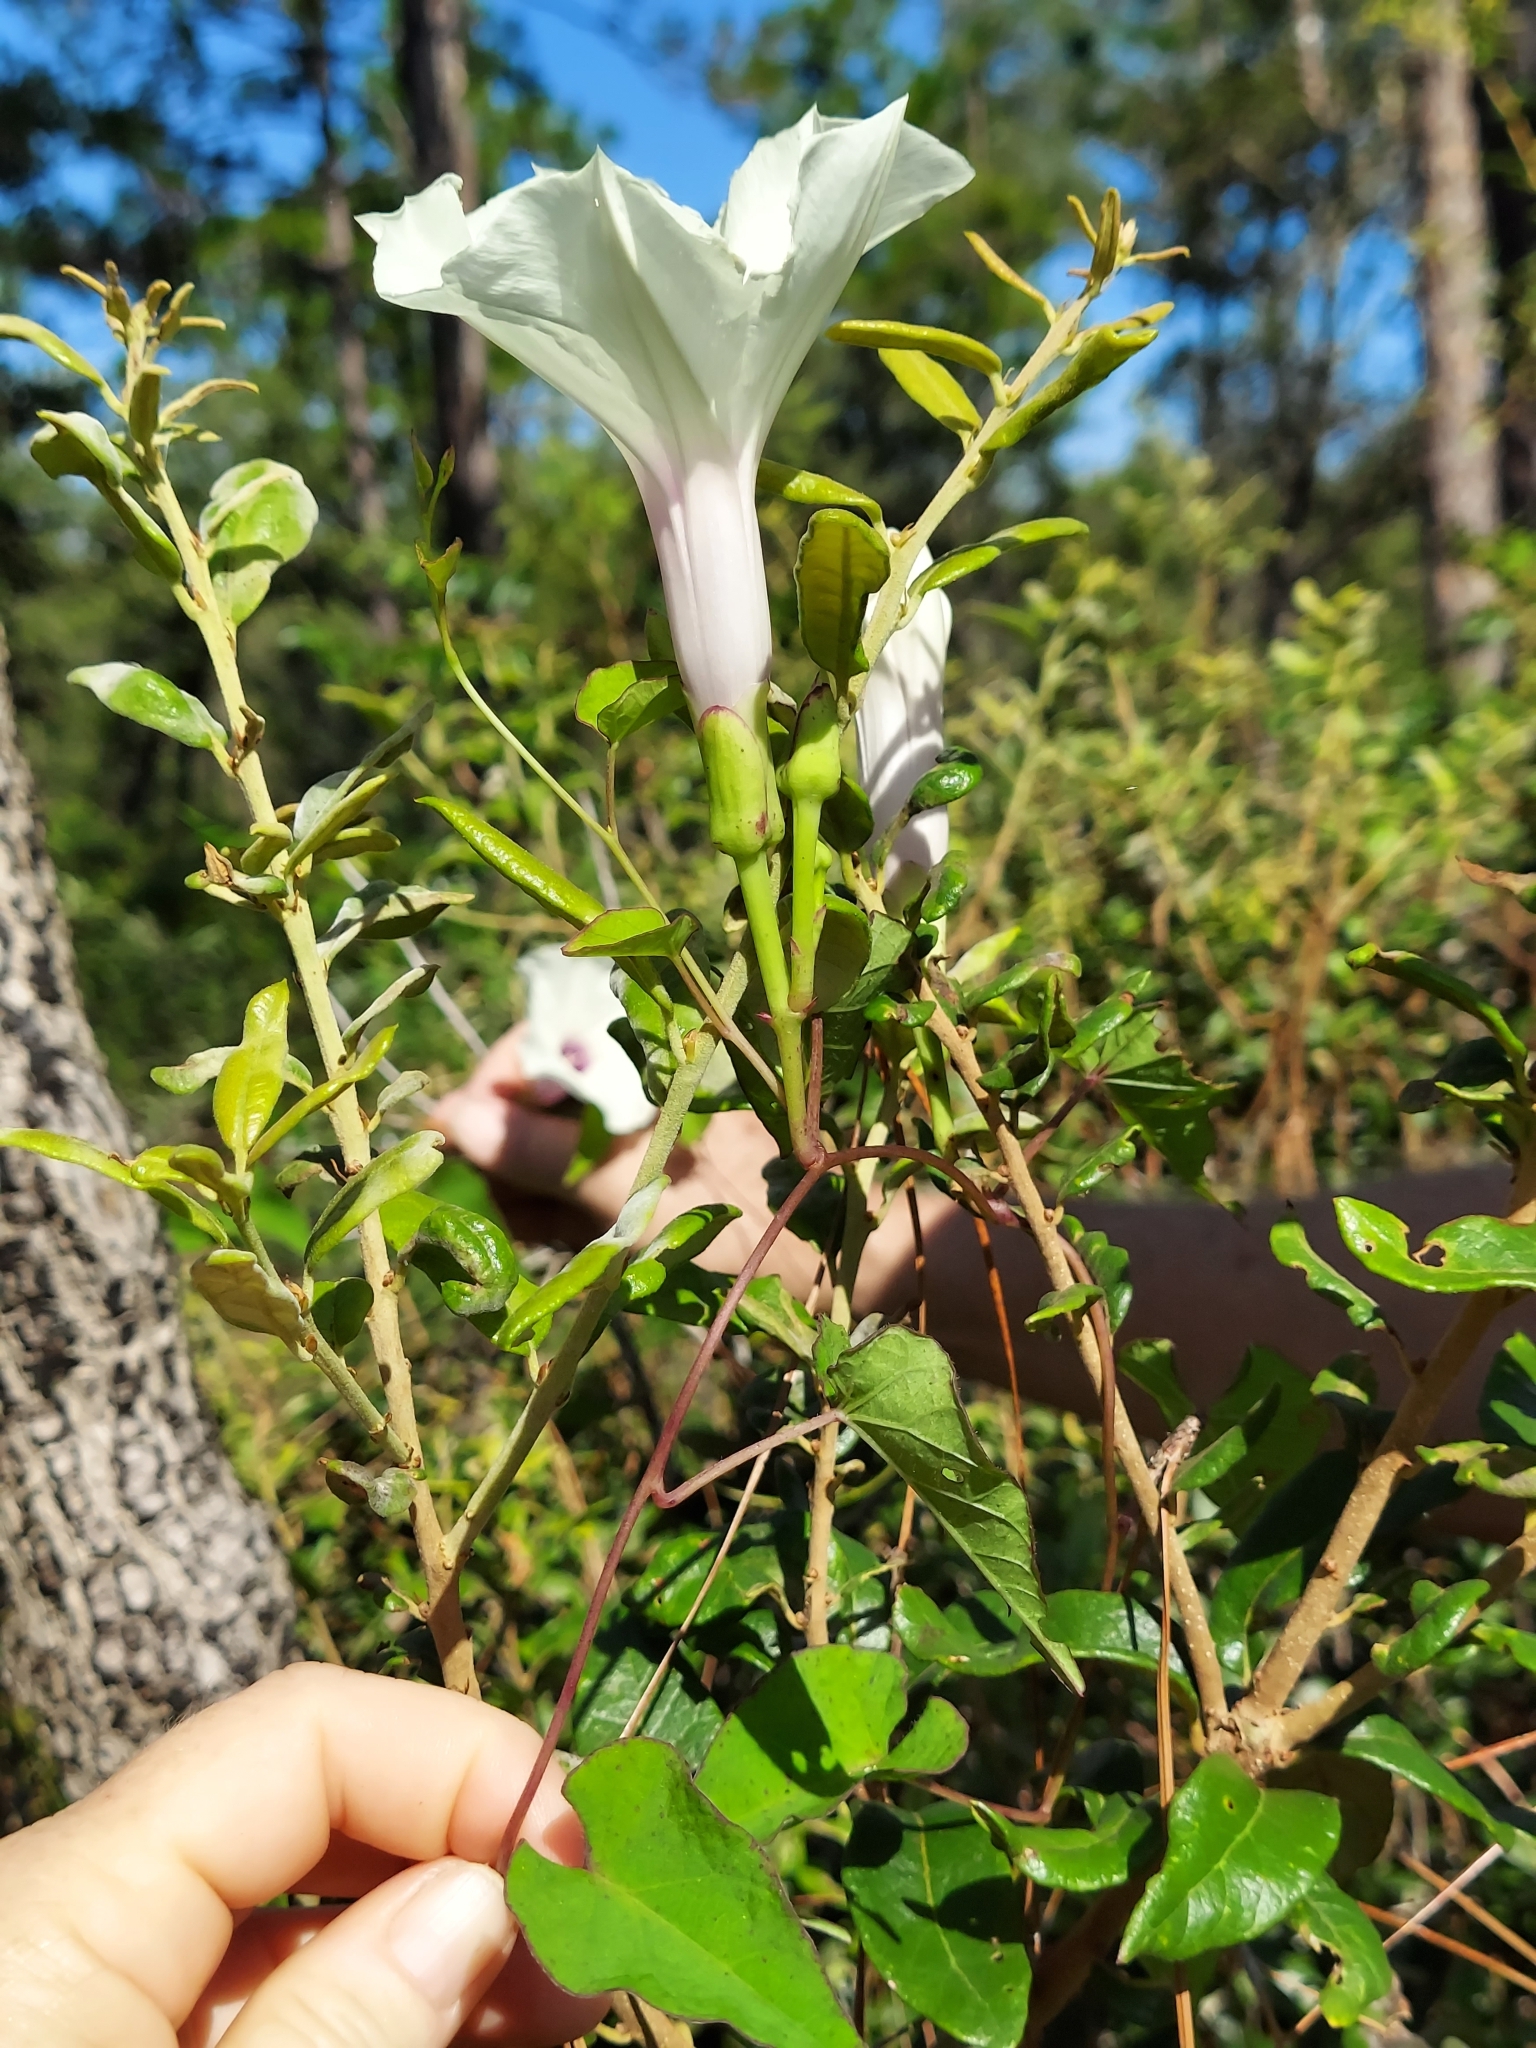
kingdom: Plantae
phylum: Tracheophyta
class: Magnoliopsida
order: Solanales
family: Convolvulaceae
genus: Ipomoea
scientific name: Ipomoea pandurata
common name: Man-of-the-earth
